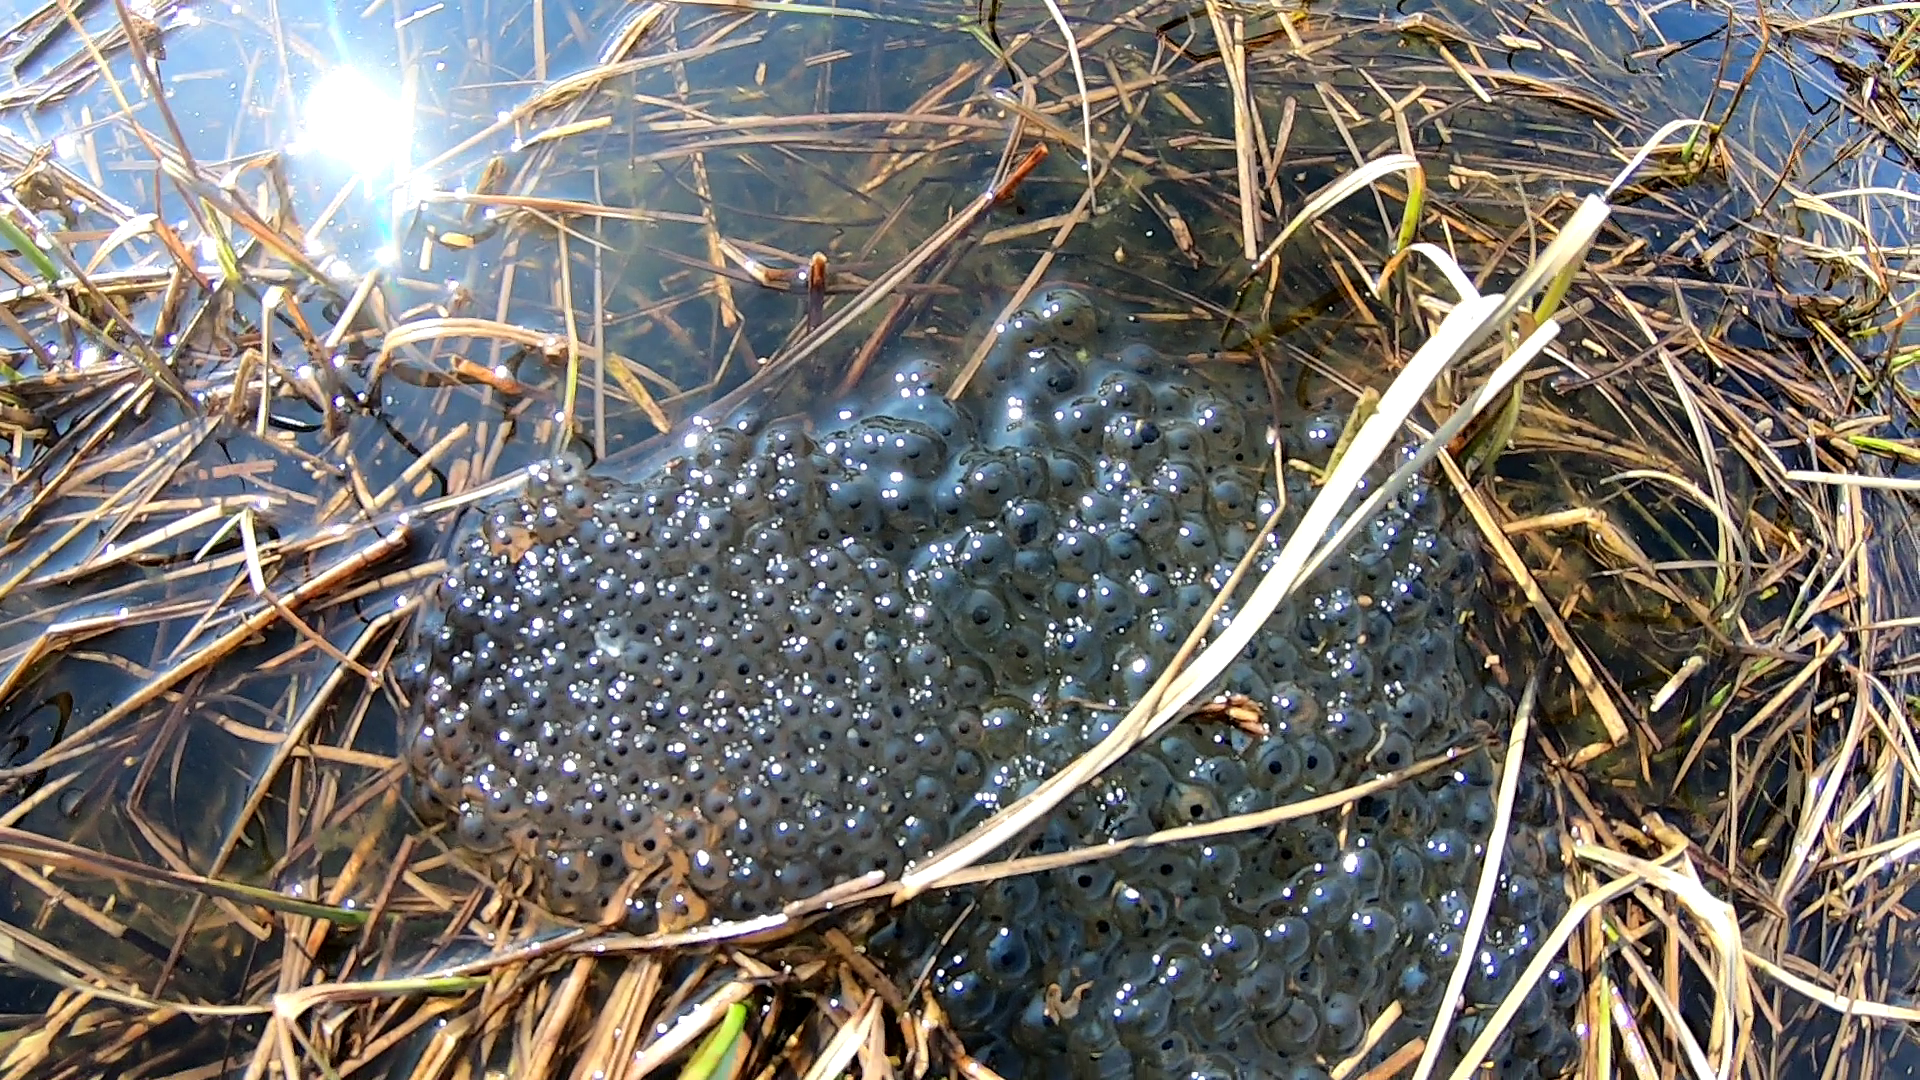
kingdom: Animalia
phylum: Chordata
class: Amphibia
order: Anura
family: Ranidae
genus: Rana
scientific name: Rana temporaria
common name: Common frog
